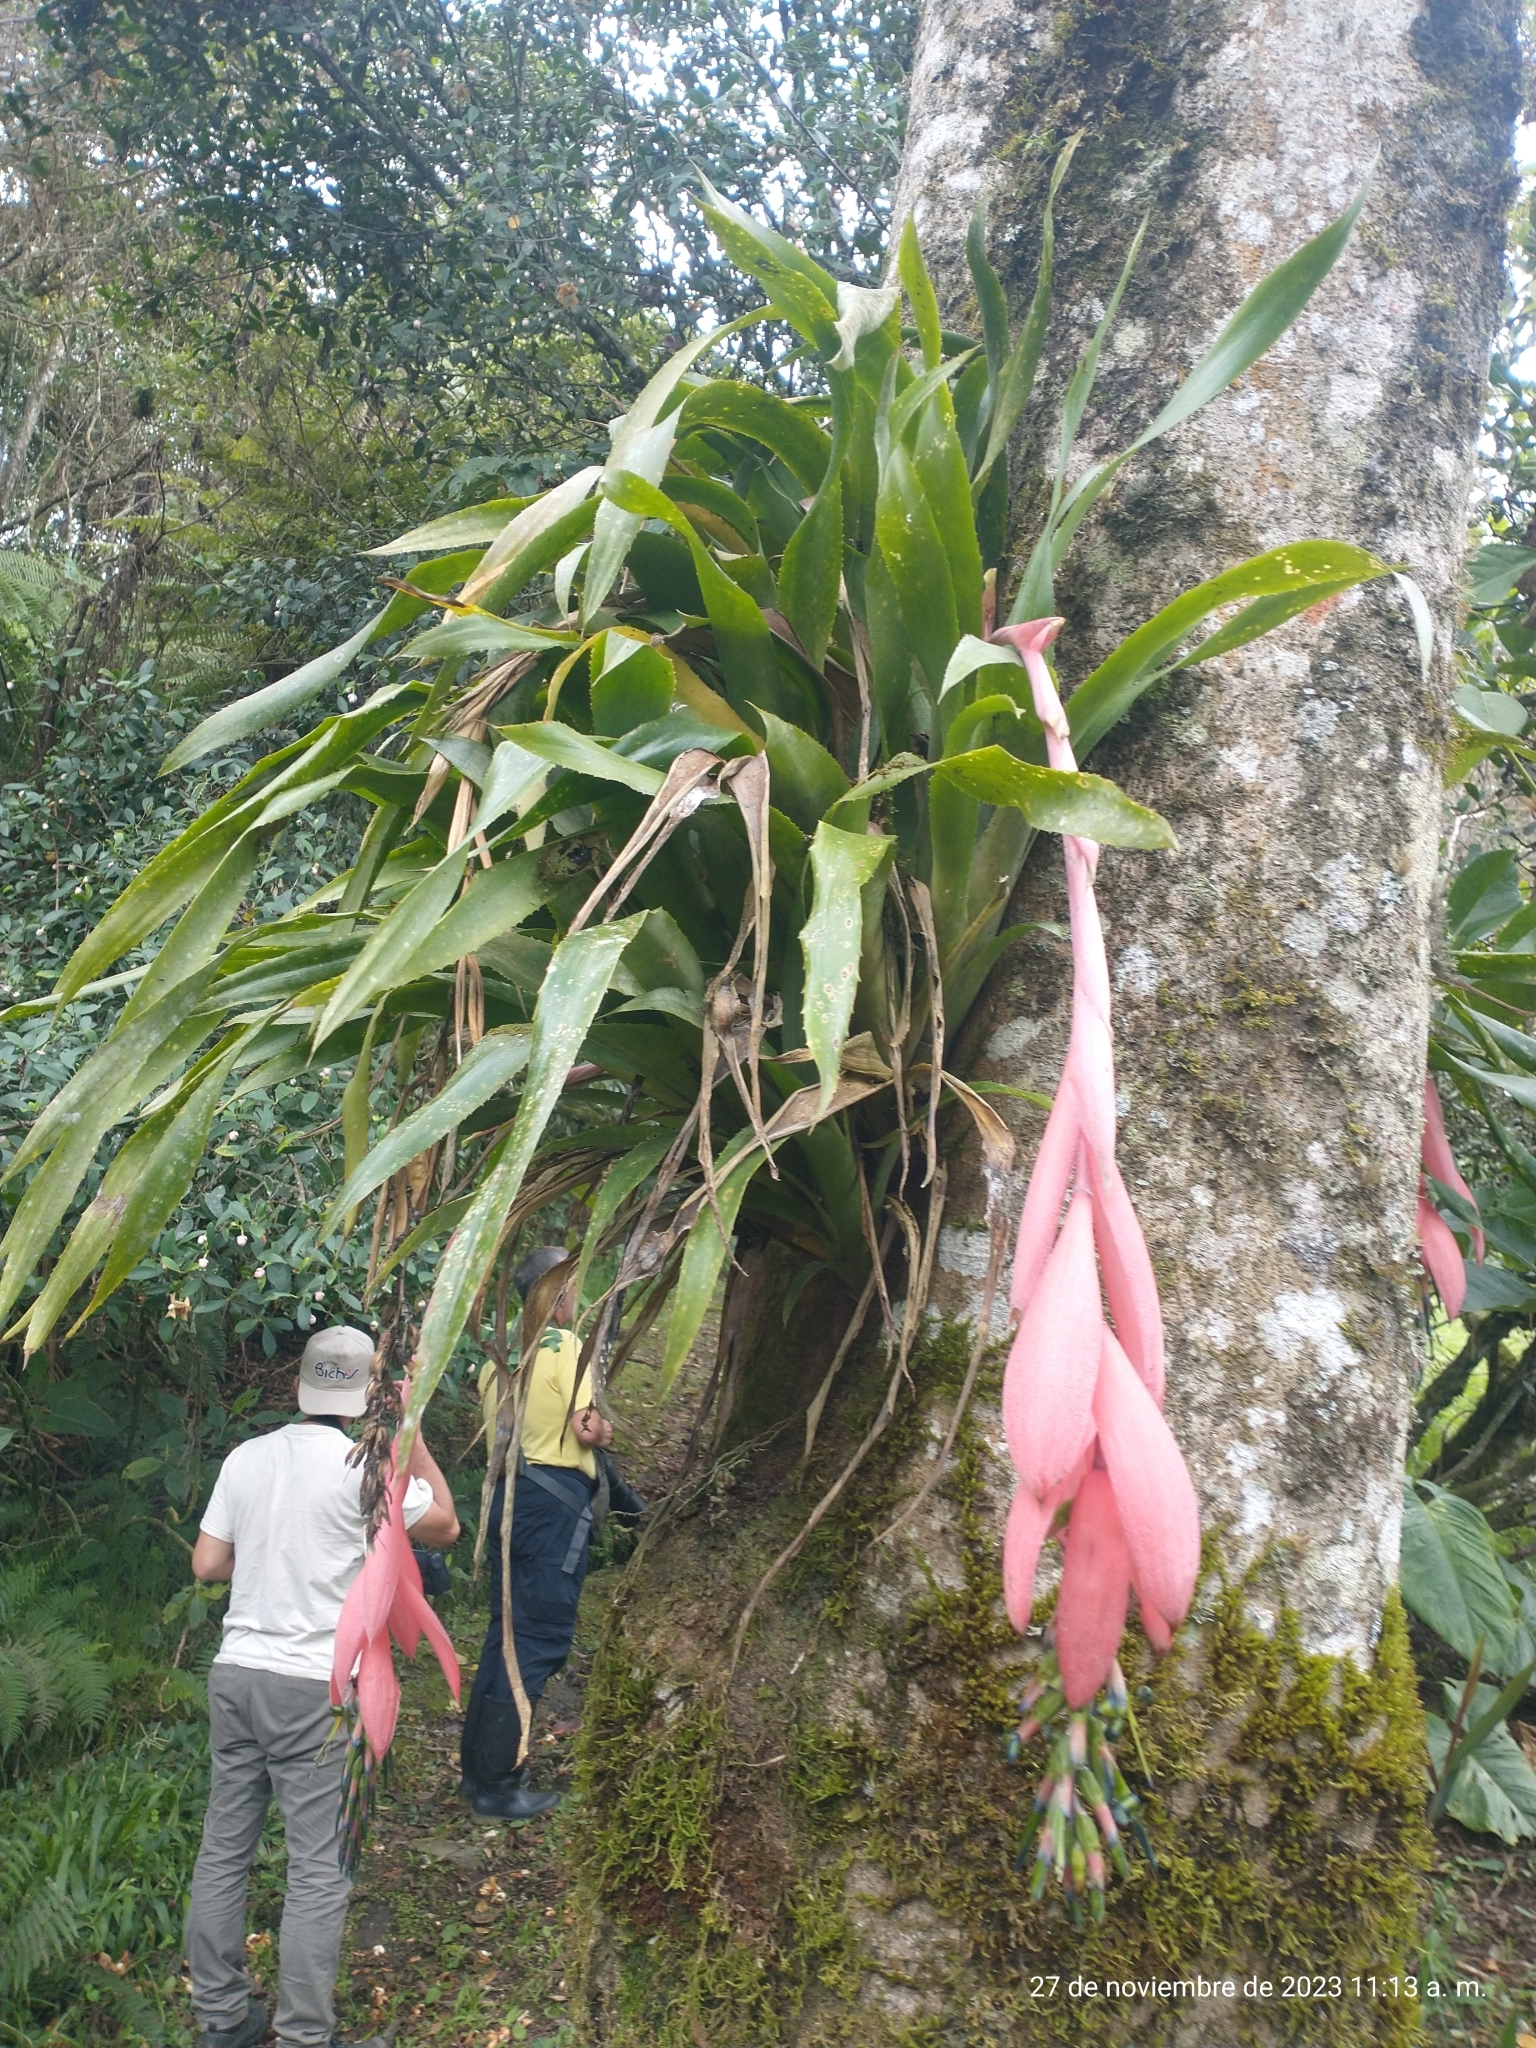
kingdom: Plantae
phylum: Tracheophyta
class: Liliopsida
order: Poales
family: Bromeliaceae
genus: Billbergia
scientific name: Billbergia nutans
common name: Friendship-plant
